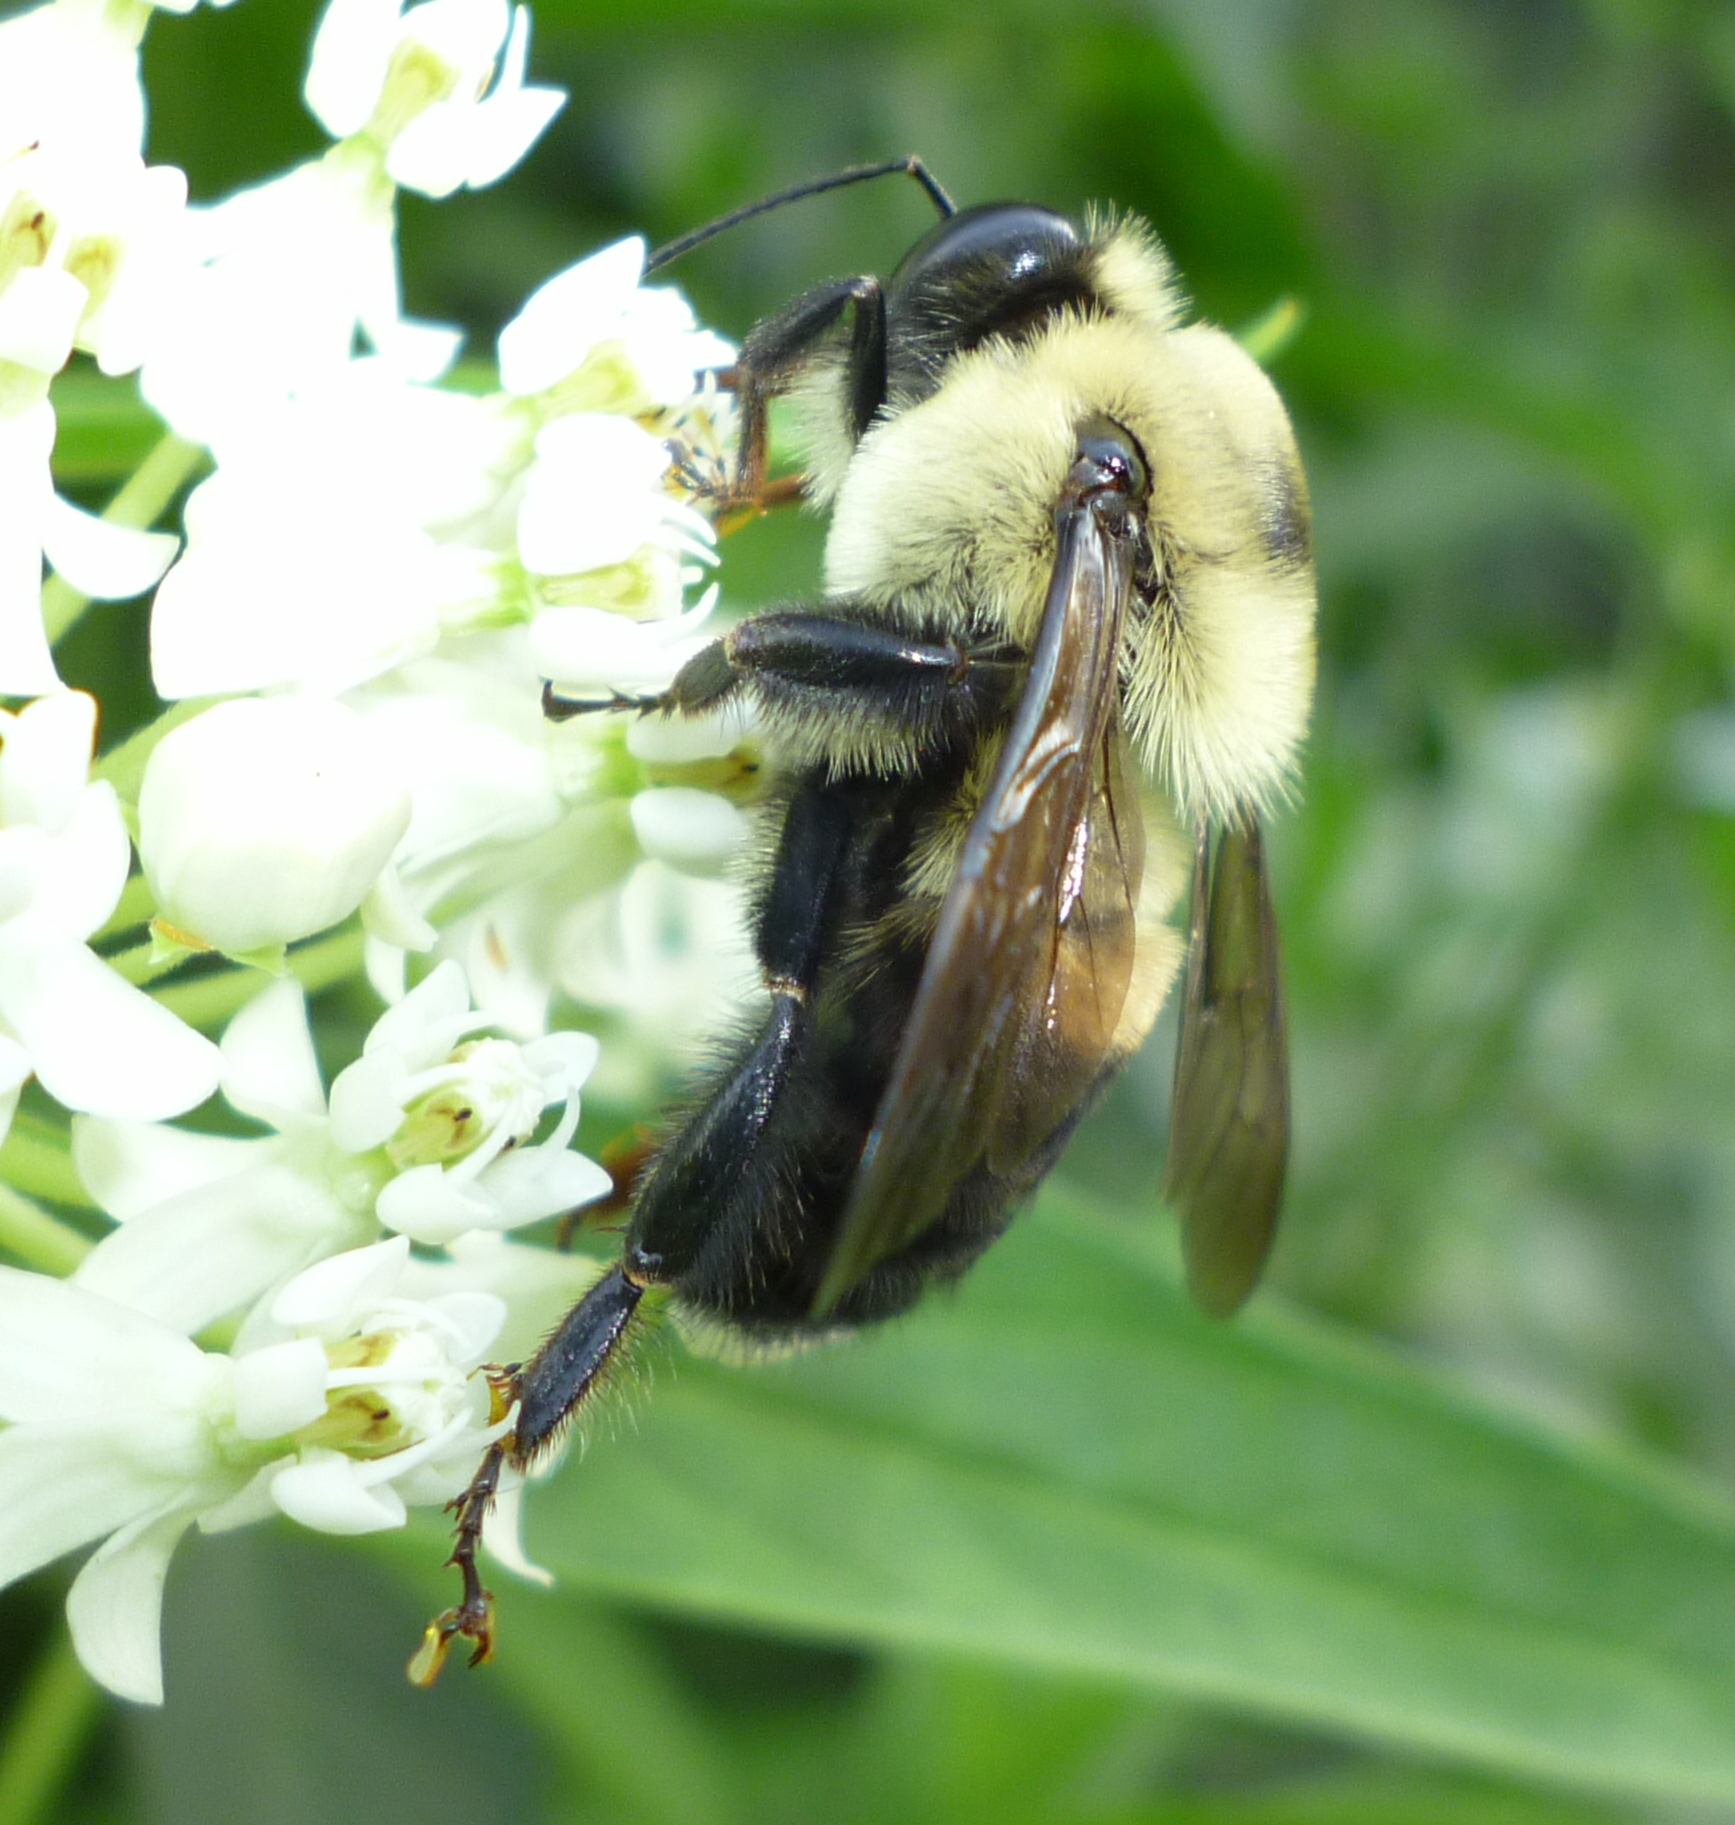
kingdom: Animalia
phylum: Arthropoda
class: Insecta
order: Hymenoptera
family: Apidae
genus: Bombus
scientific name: Bombus griseocollis
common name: Brown-belted bumble bee
